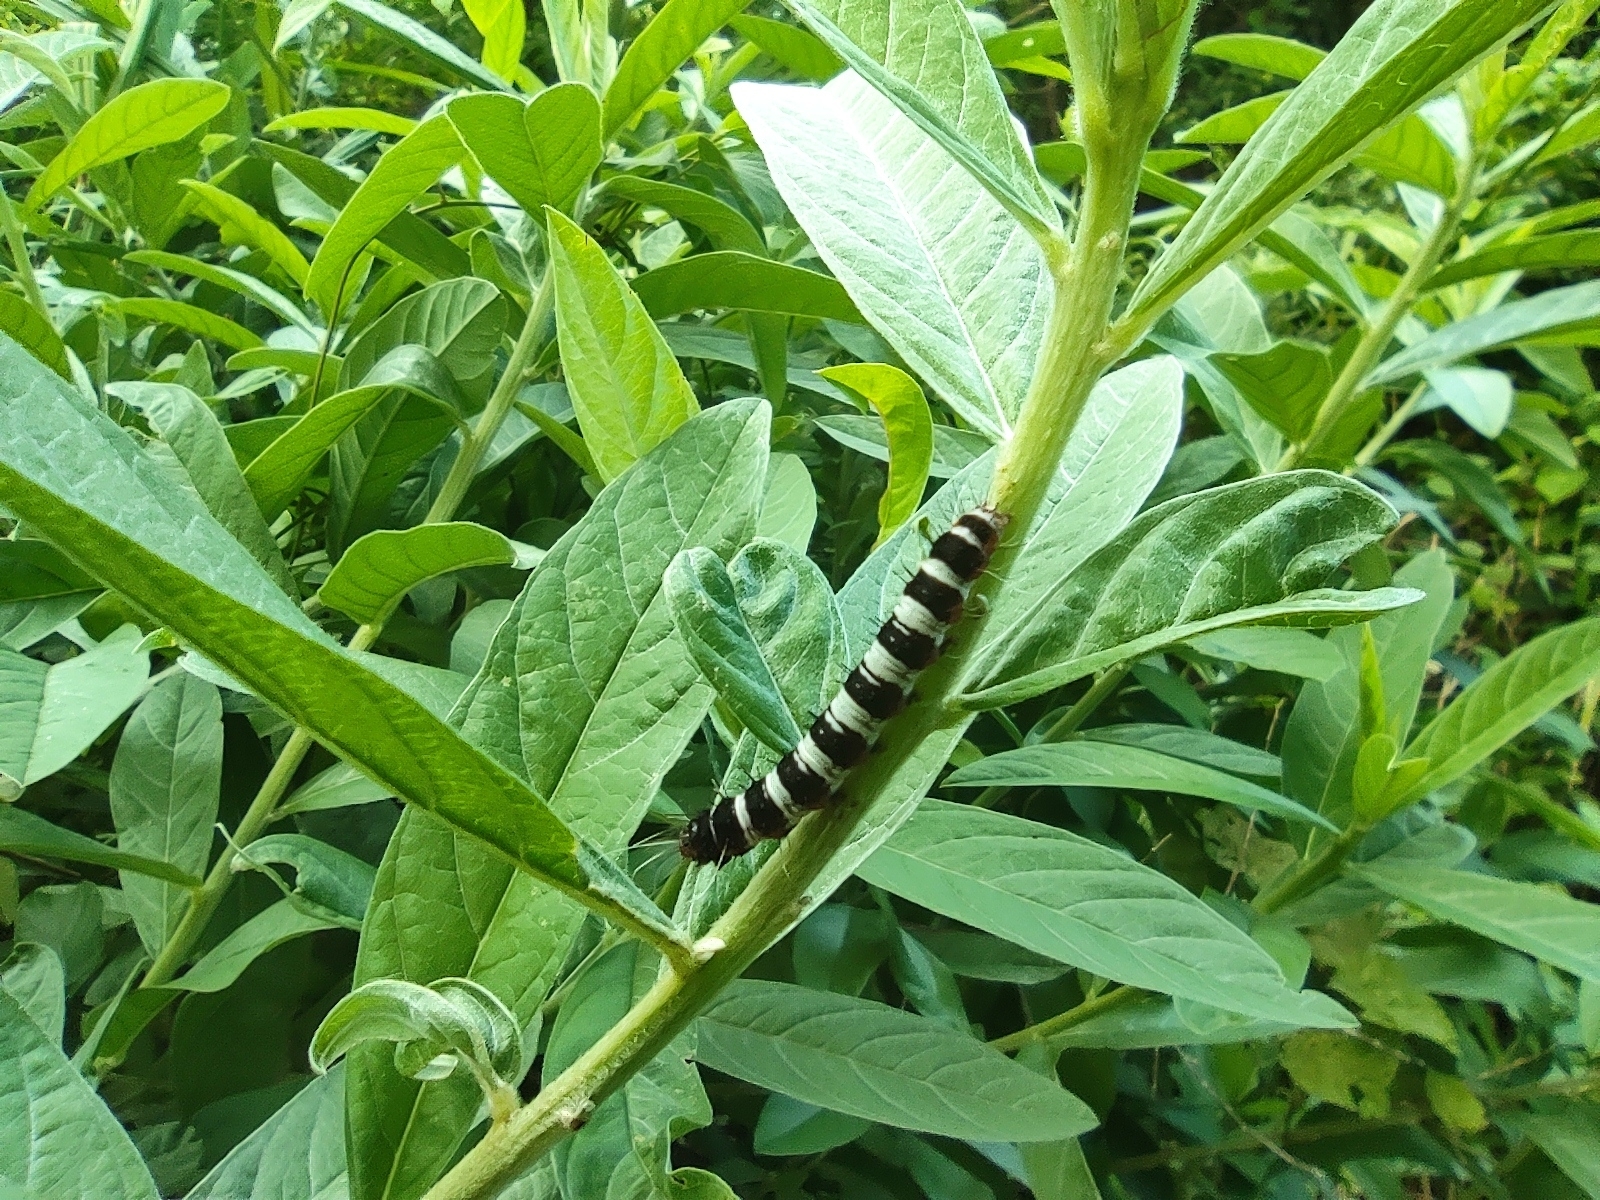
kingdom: Animalia
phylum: Arthropoda
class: Insecta
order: Lepidoptera
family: Erebidae
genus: Argina
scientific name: Argina astrea
